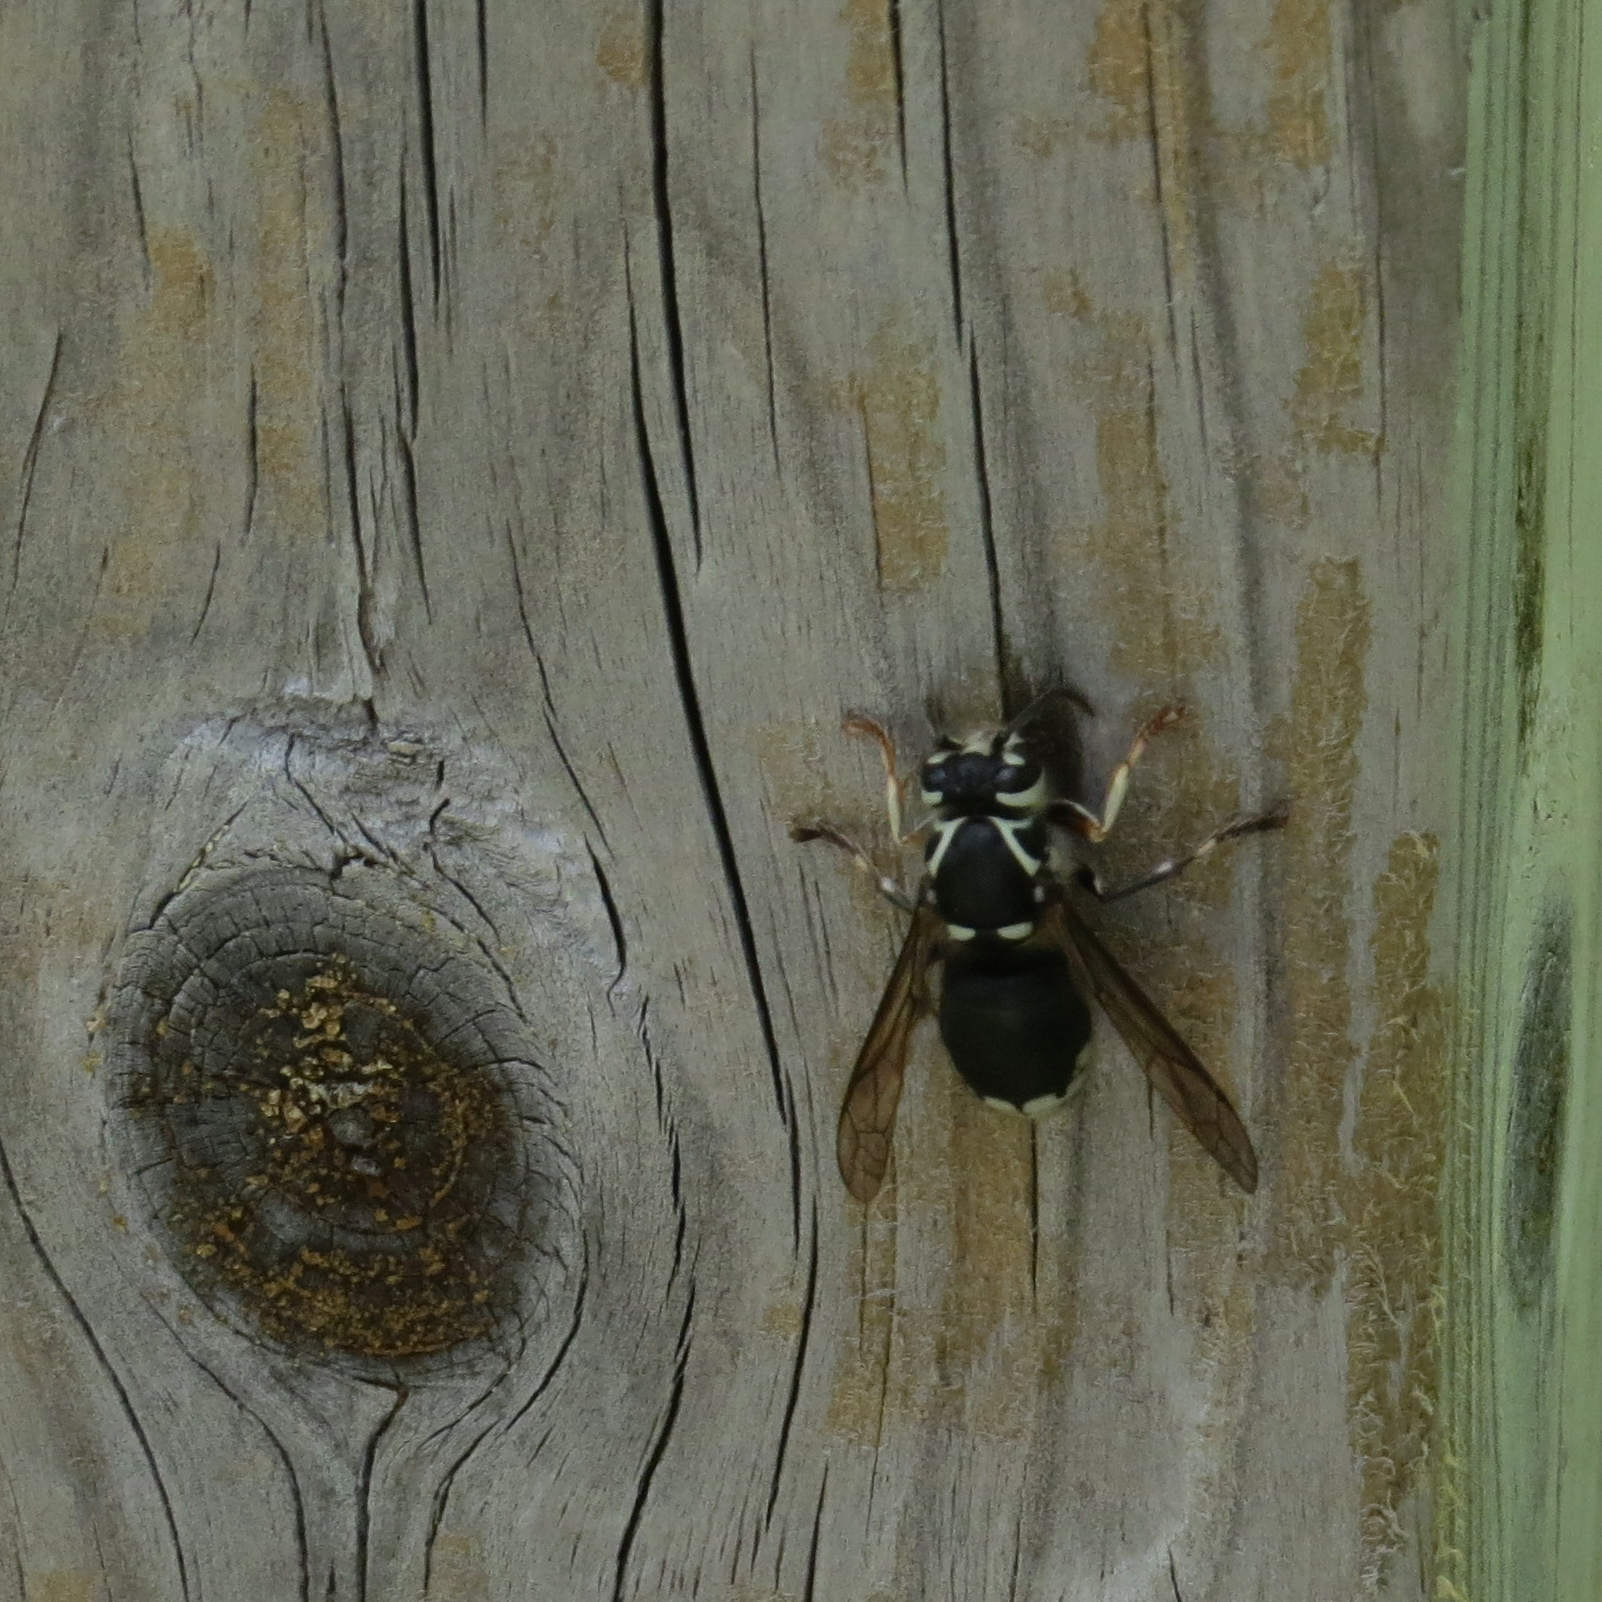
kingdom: Animalia
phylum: Arthropoda
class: Insecta
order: Hymenoptera
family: Vespidae
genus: Dolichovespula
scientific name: Dolichovespula maculata
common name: Bald-faced hornet
